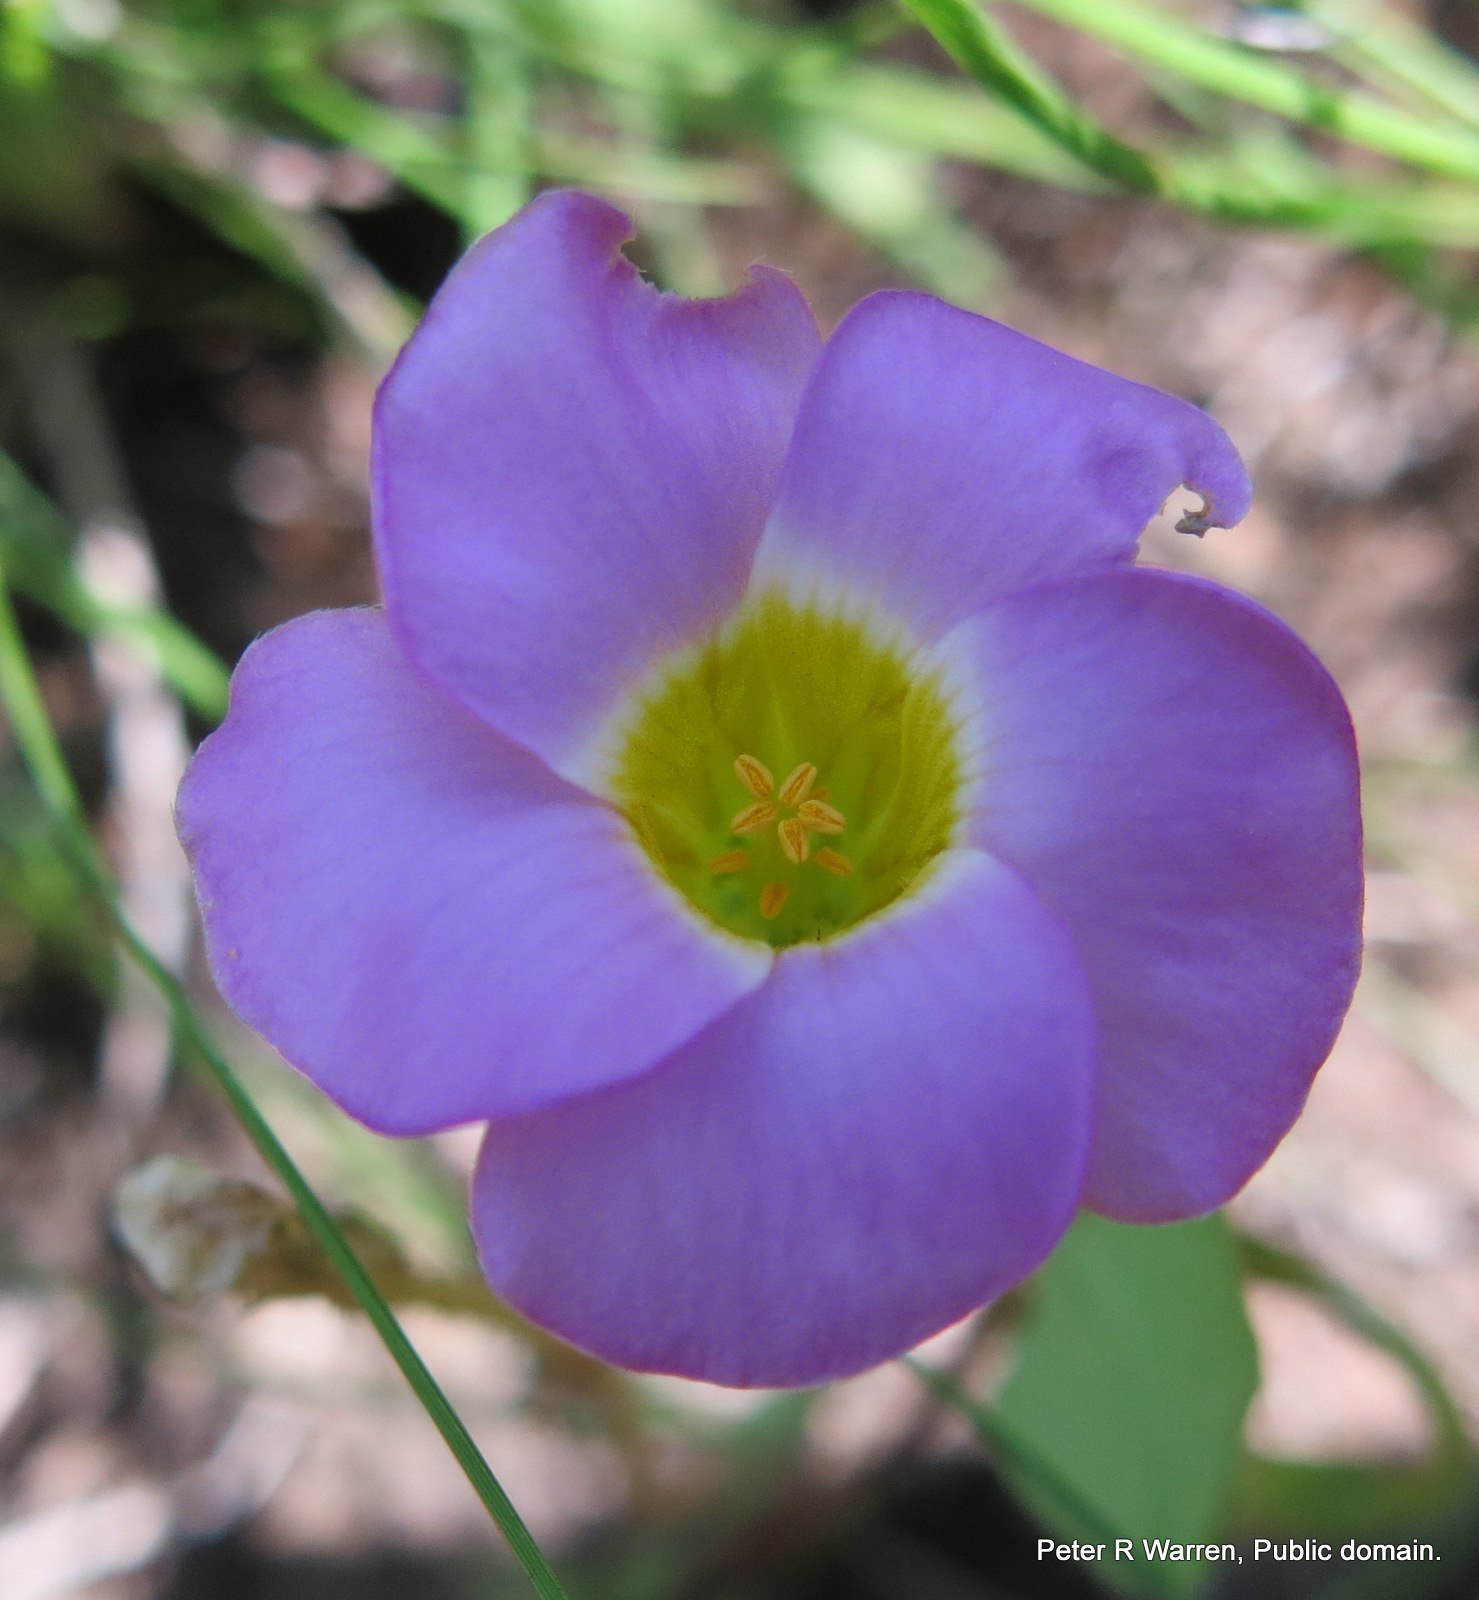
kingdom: Plantae
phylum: Tracheophyta
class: Magnoliopsida
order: Oxalidales
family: Oxalidaceae
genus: Oxalis
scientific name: Oxalis obliquifolia
